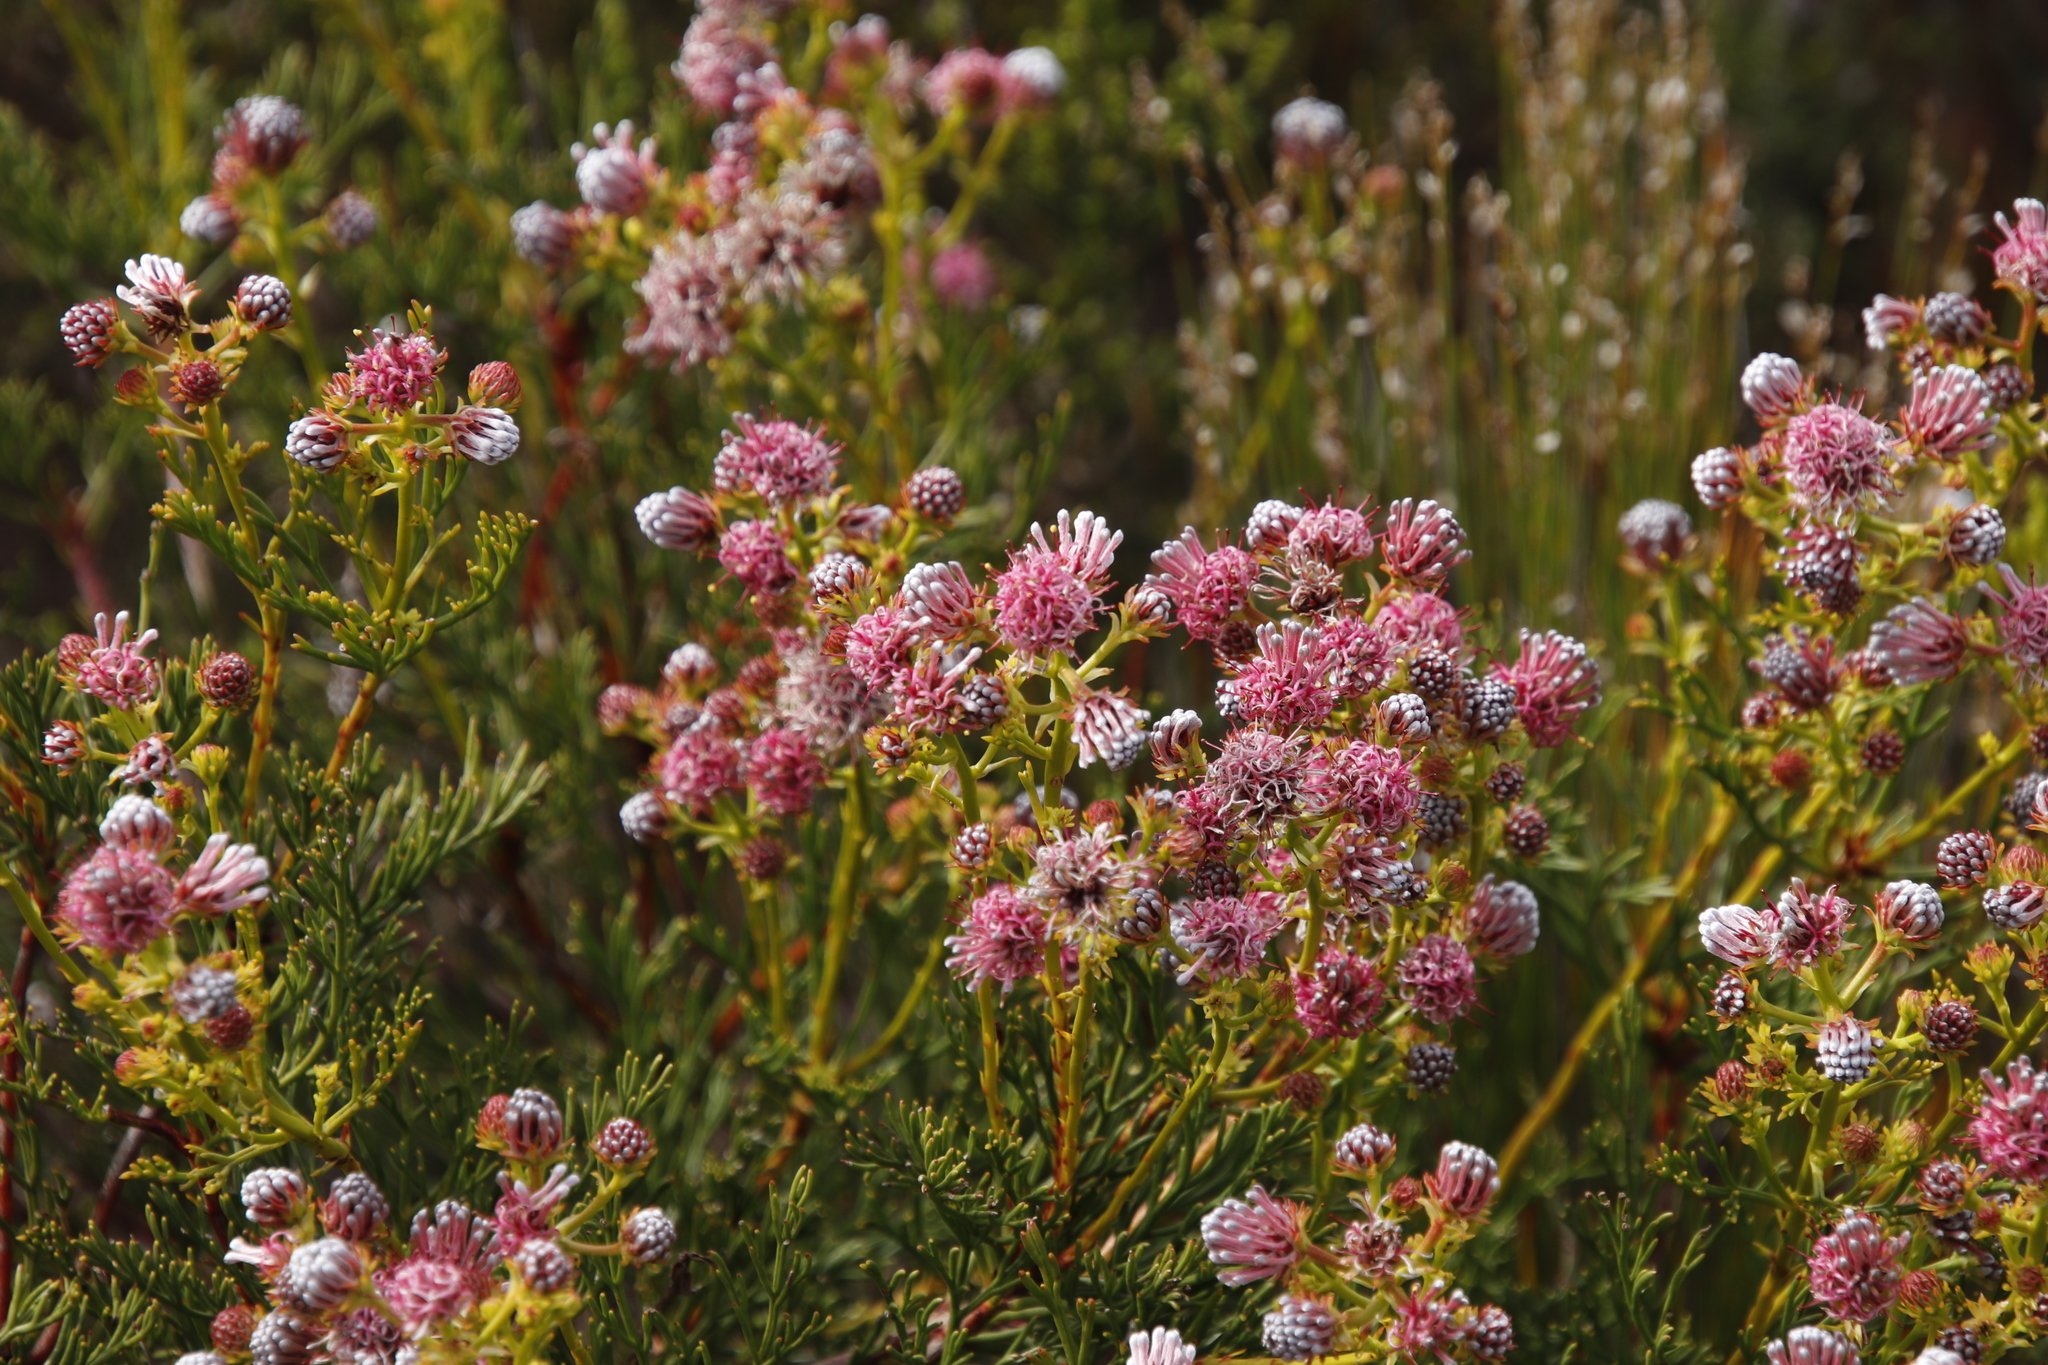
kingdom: Plantae
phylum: Tracheophyta
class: Magnoliopsida
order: Proteales
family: Proteaceae
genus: Serruria
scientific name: Serruria elongata
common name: Long-stalk spiderhead
